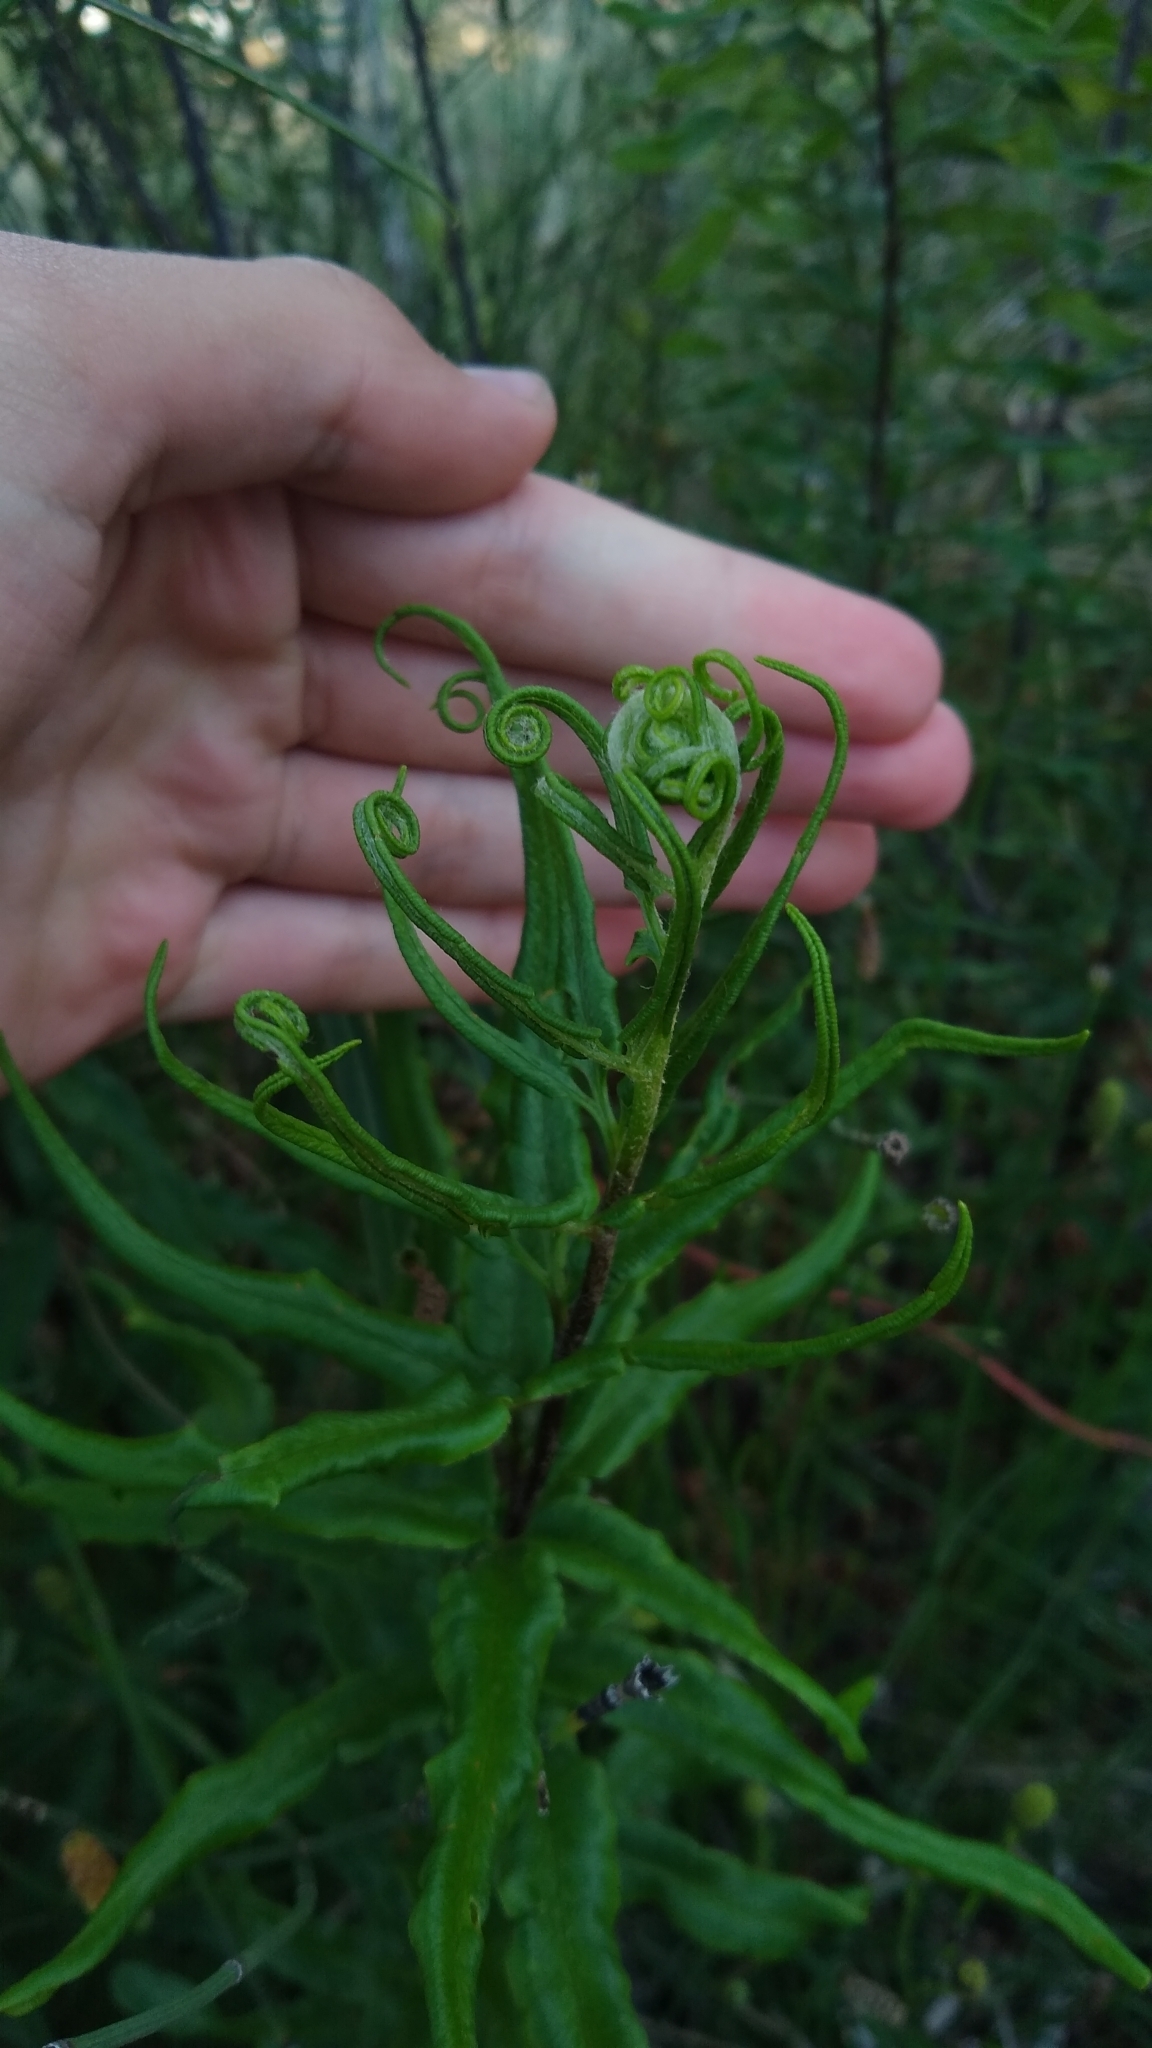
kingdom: Plantae
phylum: Tracheophyta
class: Polypodiopsida
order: Polypodiales
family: Pteridaceae
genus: Pityrogramma
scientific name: Pityrogramma trifoliata
